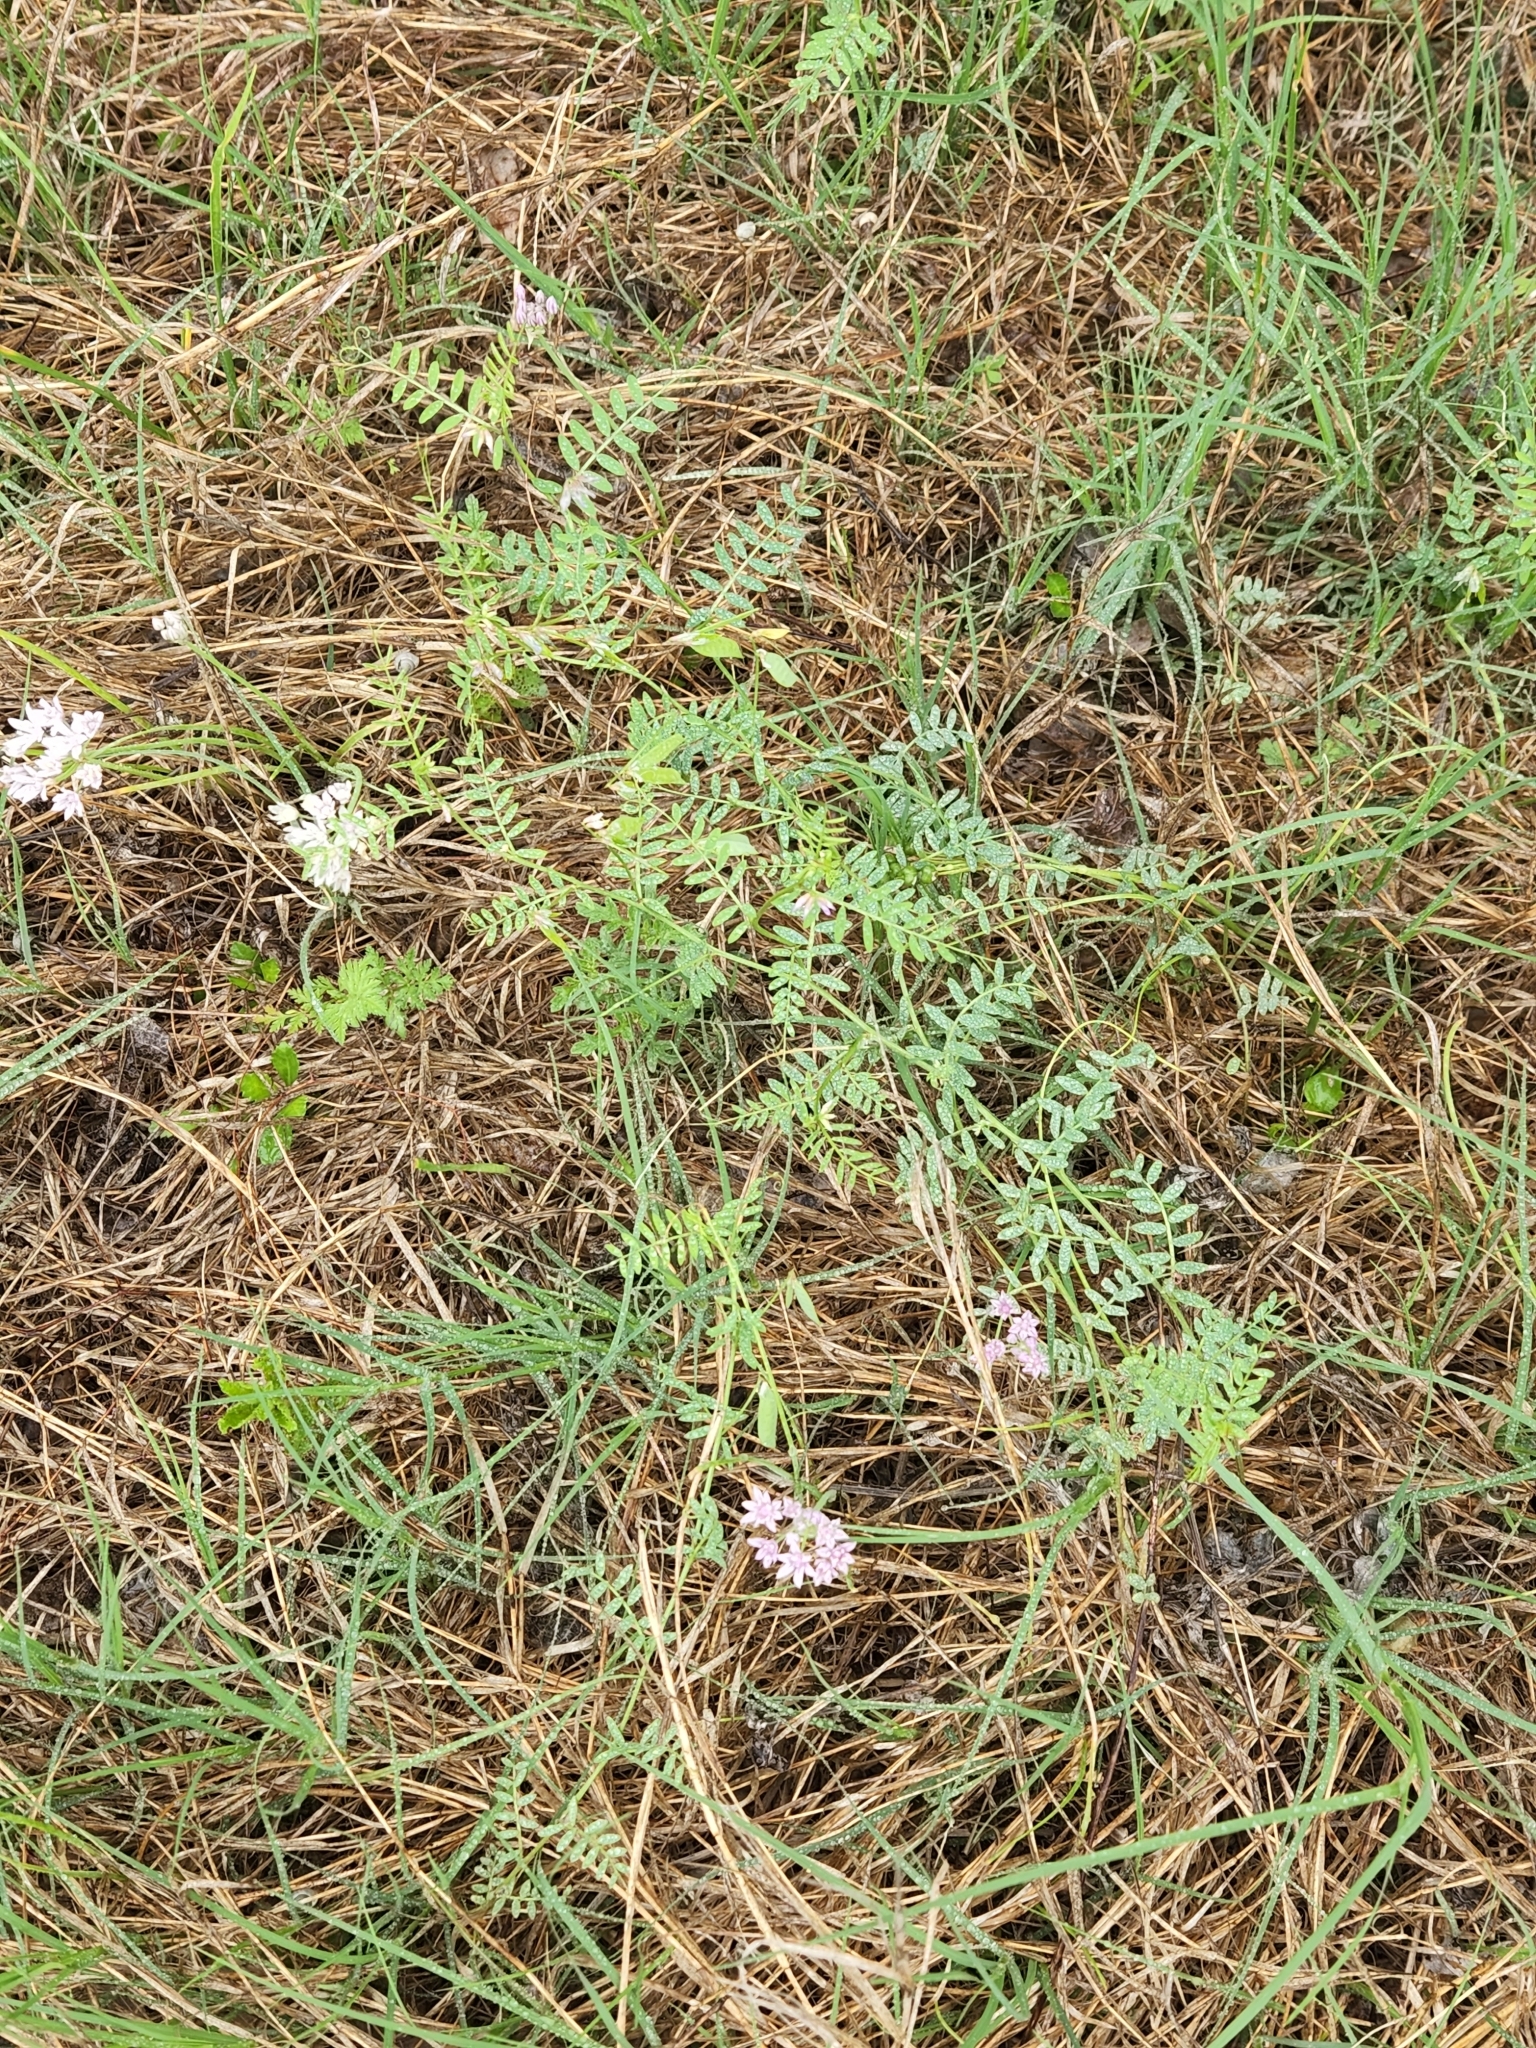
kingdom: Plantae
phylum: Tracheophyta
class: Magnoliopsida
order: Fabales
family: Fabaceae
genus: Vicia
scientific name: Vicia ludoviciana
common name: Louisiana vetch
